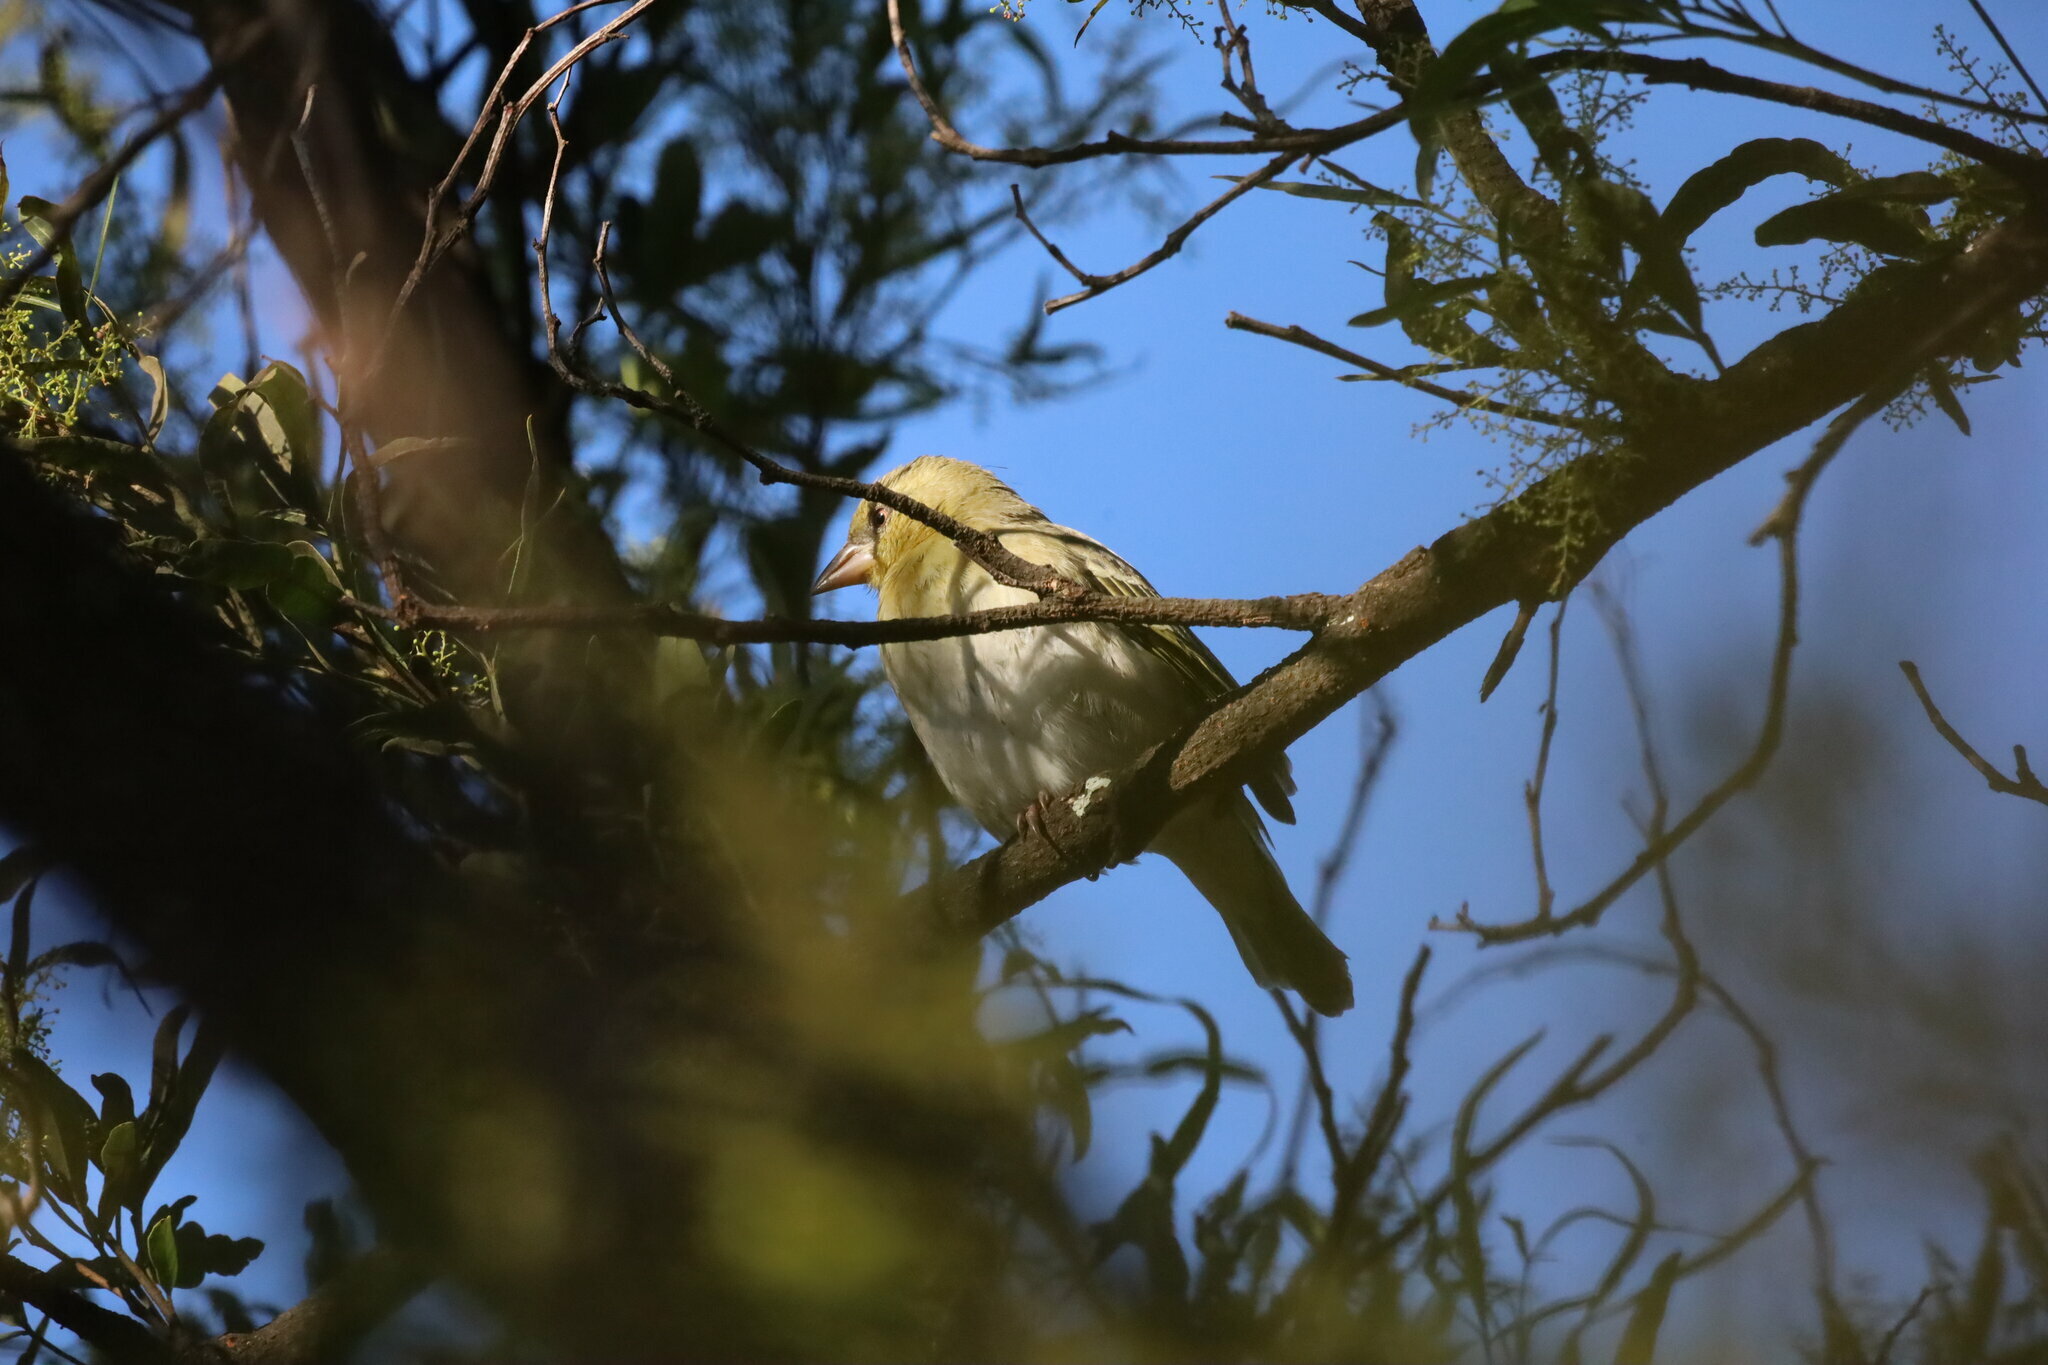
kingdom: Animalia
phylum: Chordata
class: Aves
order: Passeriformes
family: Ploceidae
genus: Ploceus
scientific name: Ploceus velatus
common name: Southern masked weaver
